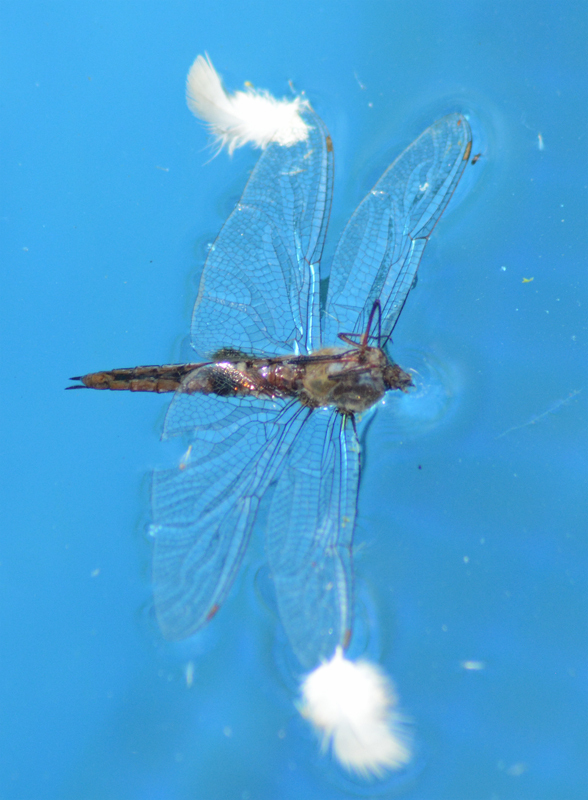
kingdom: Animalia
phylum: Arthropoda
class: Insecta
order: Odonata
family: Libellulidae
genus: Pantala
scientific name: Pantala hymenaea
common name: Spot-winged glider
